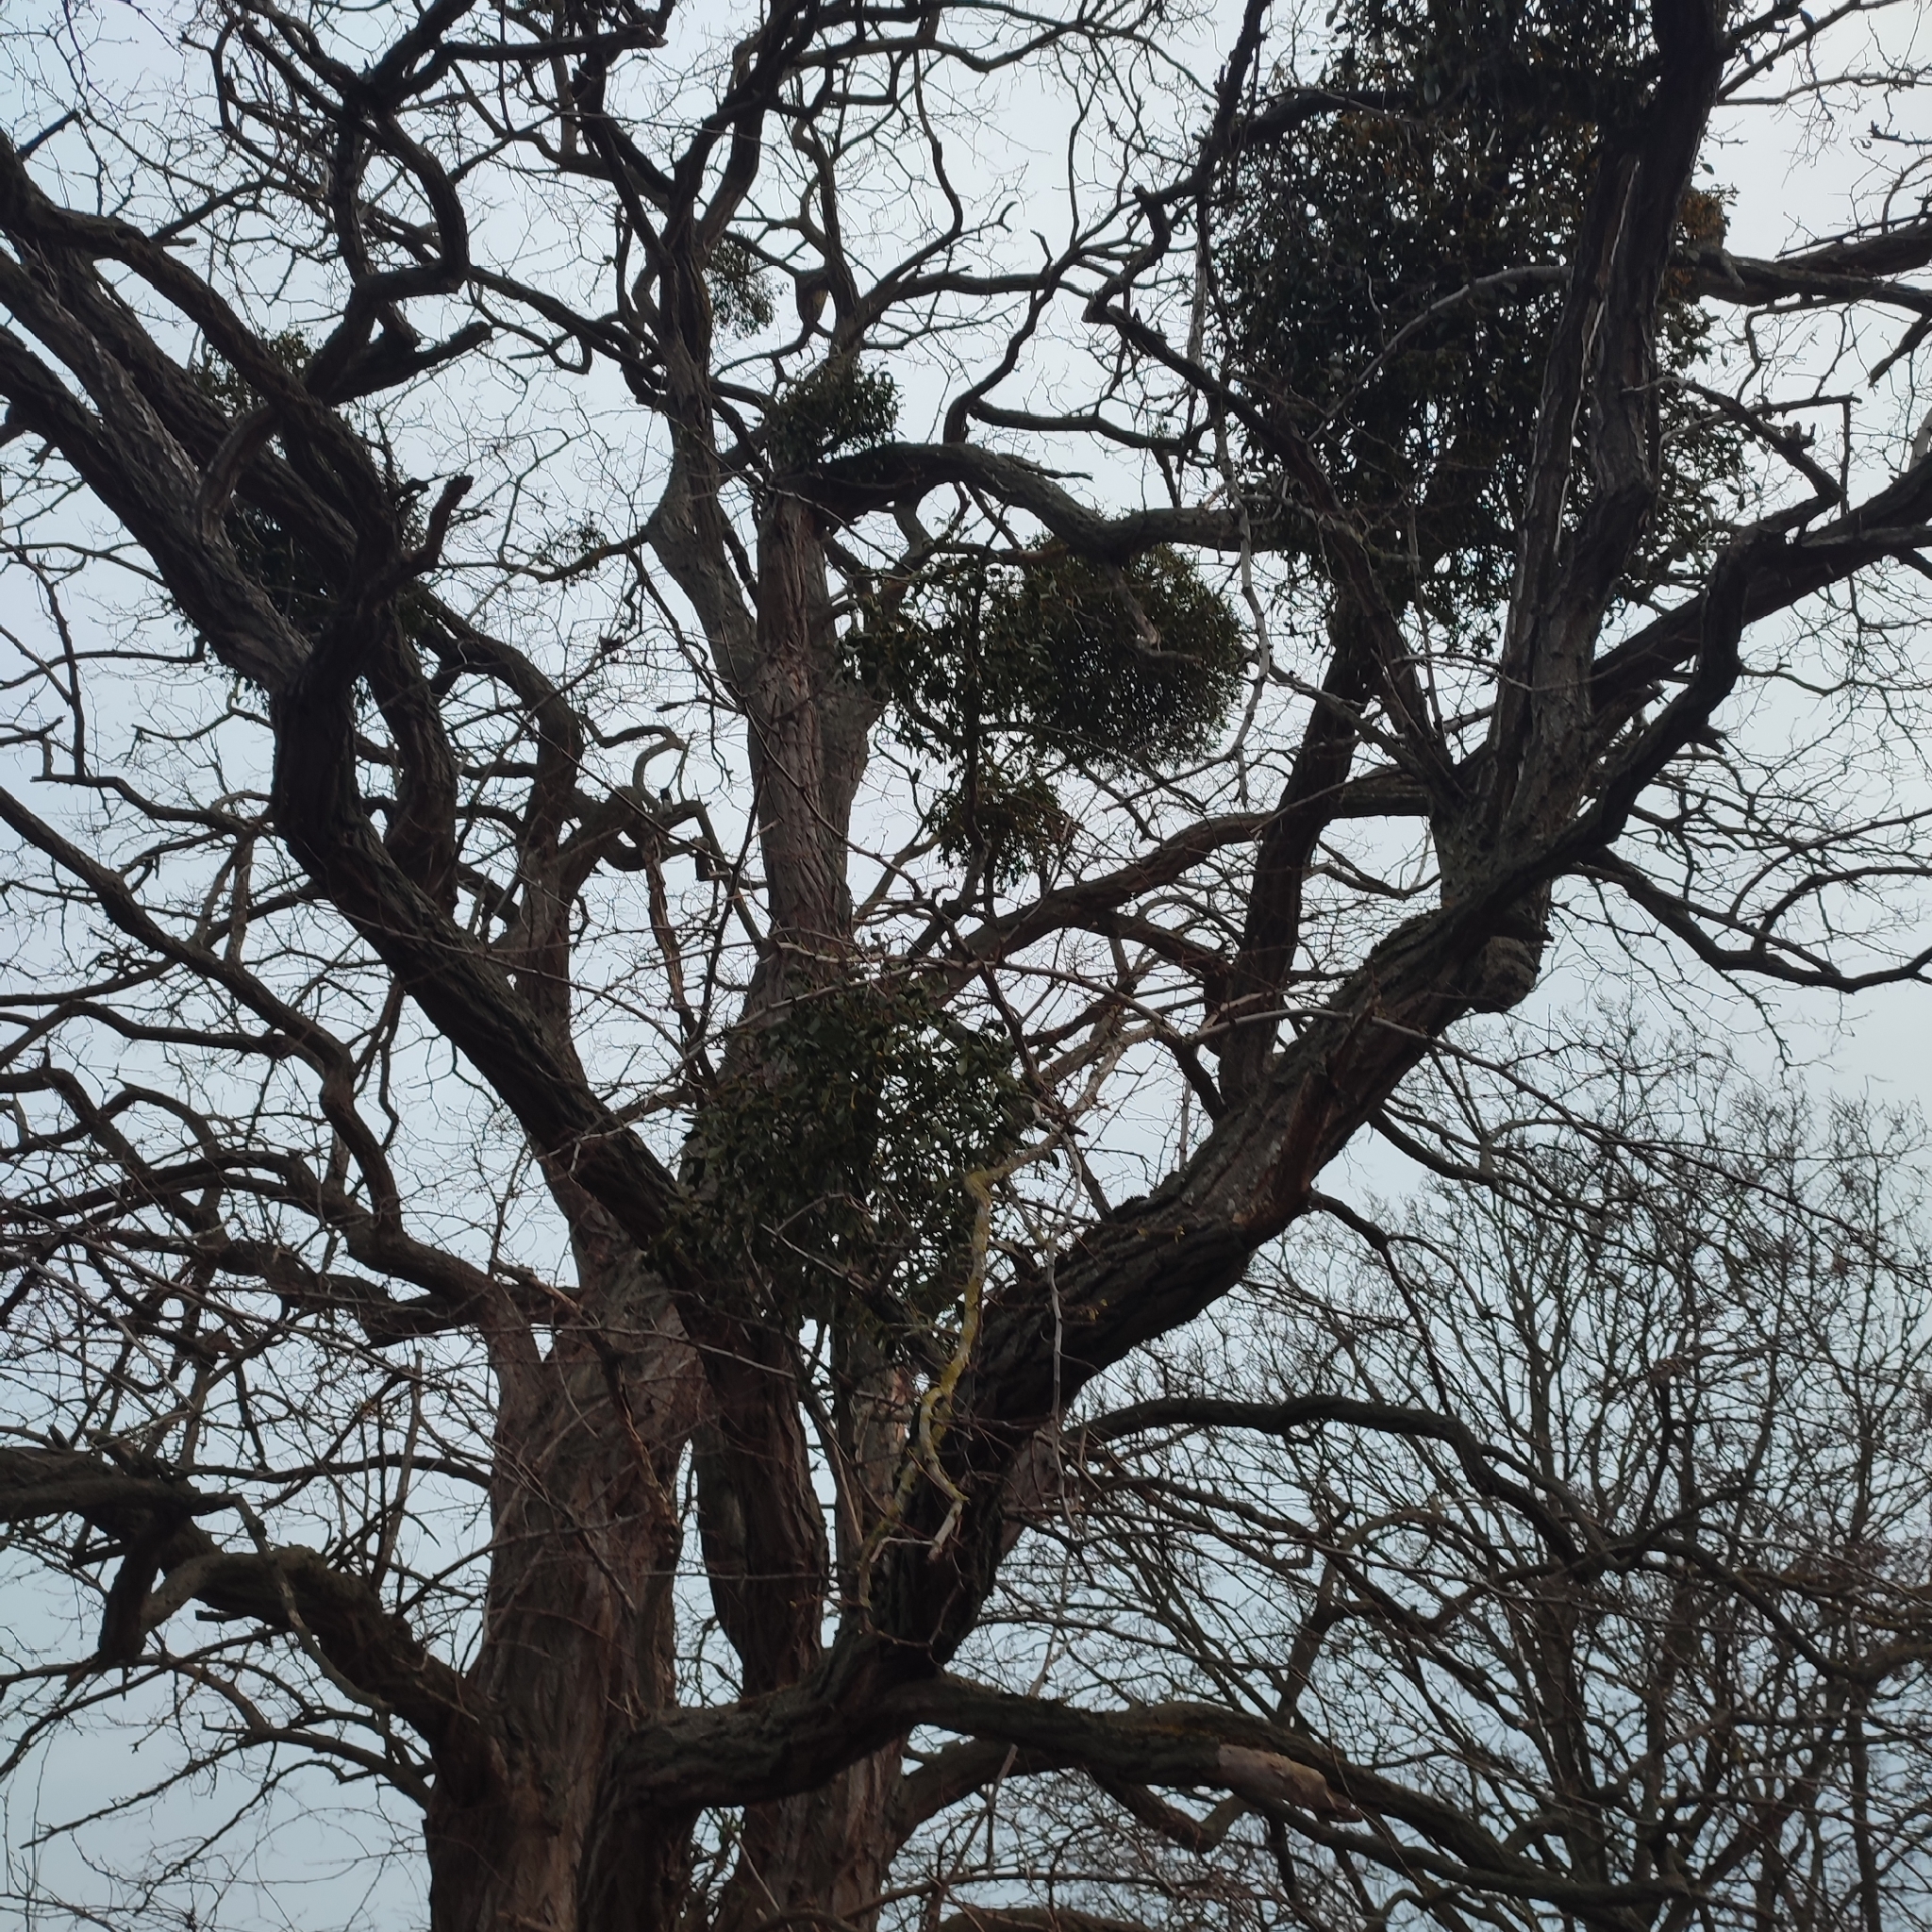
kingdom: Plantae
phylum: Tracheophyta
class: Magnoliopsida
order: Santalales
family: Viscaceae
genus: Viscum
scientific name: Viscum album
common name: Mistletoe
